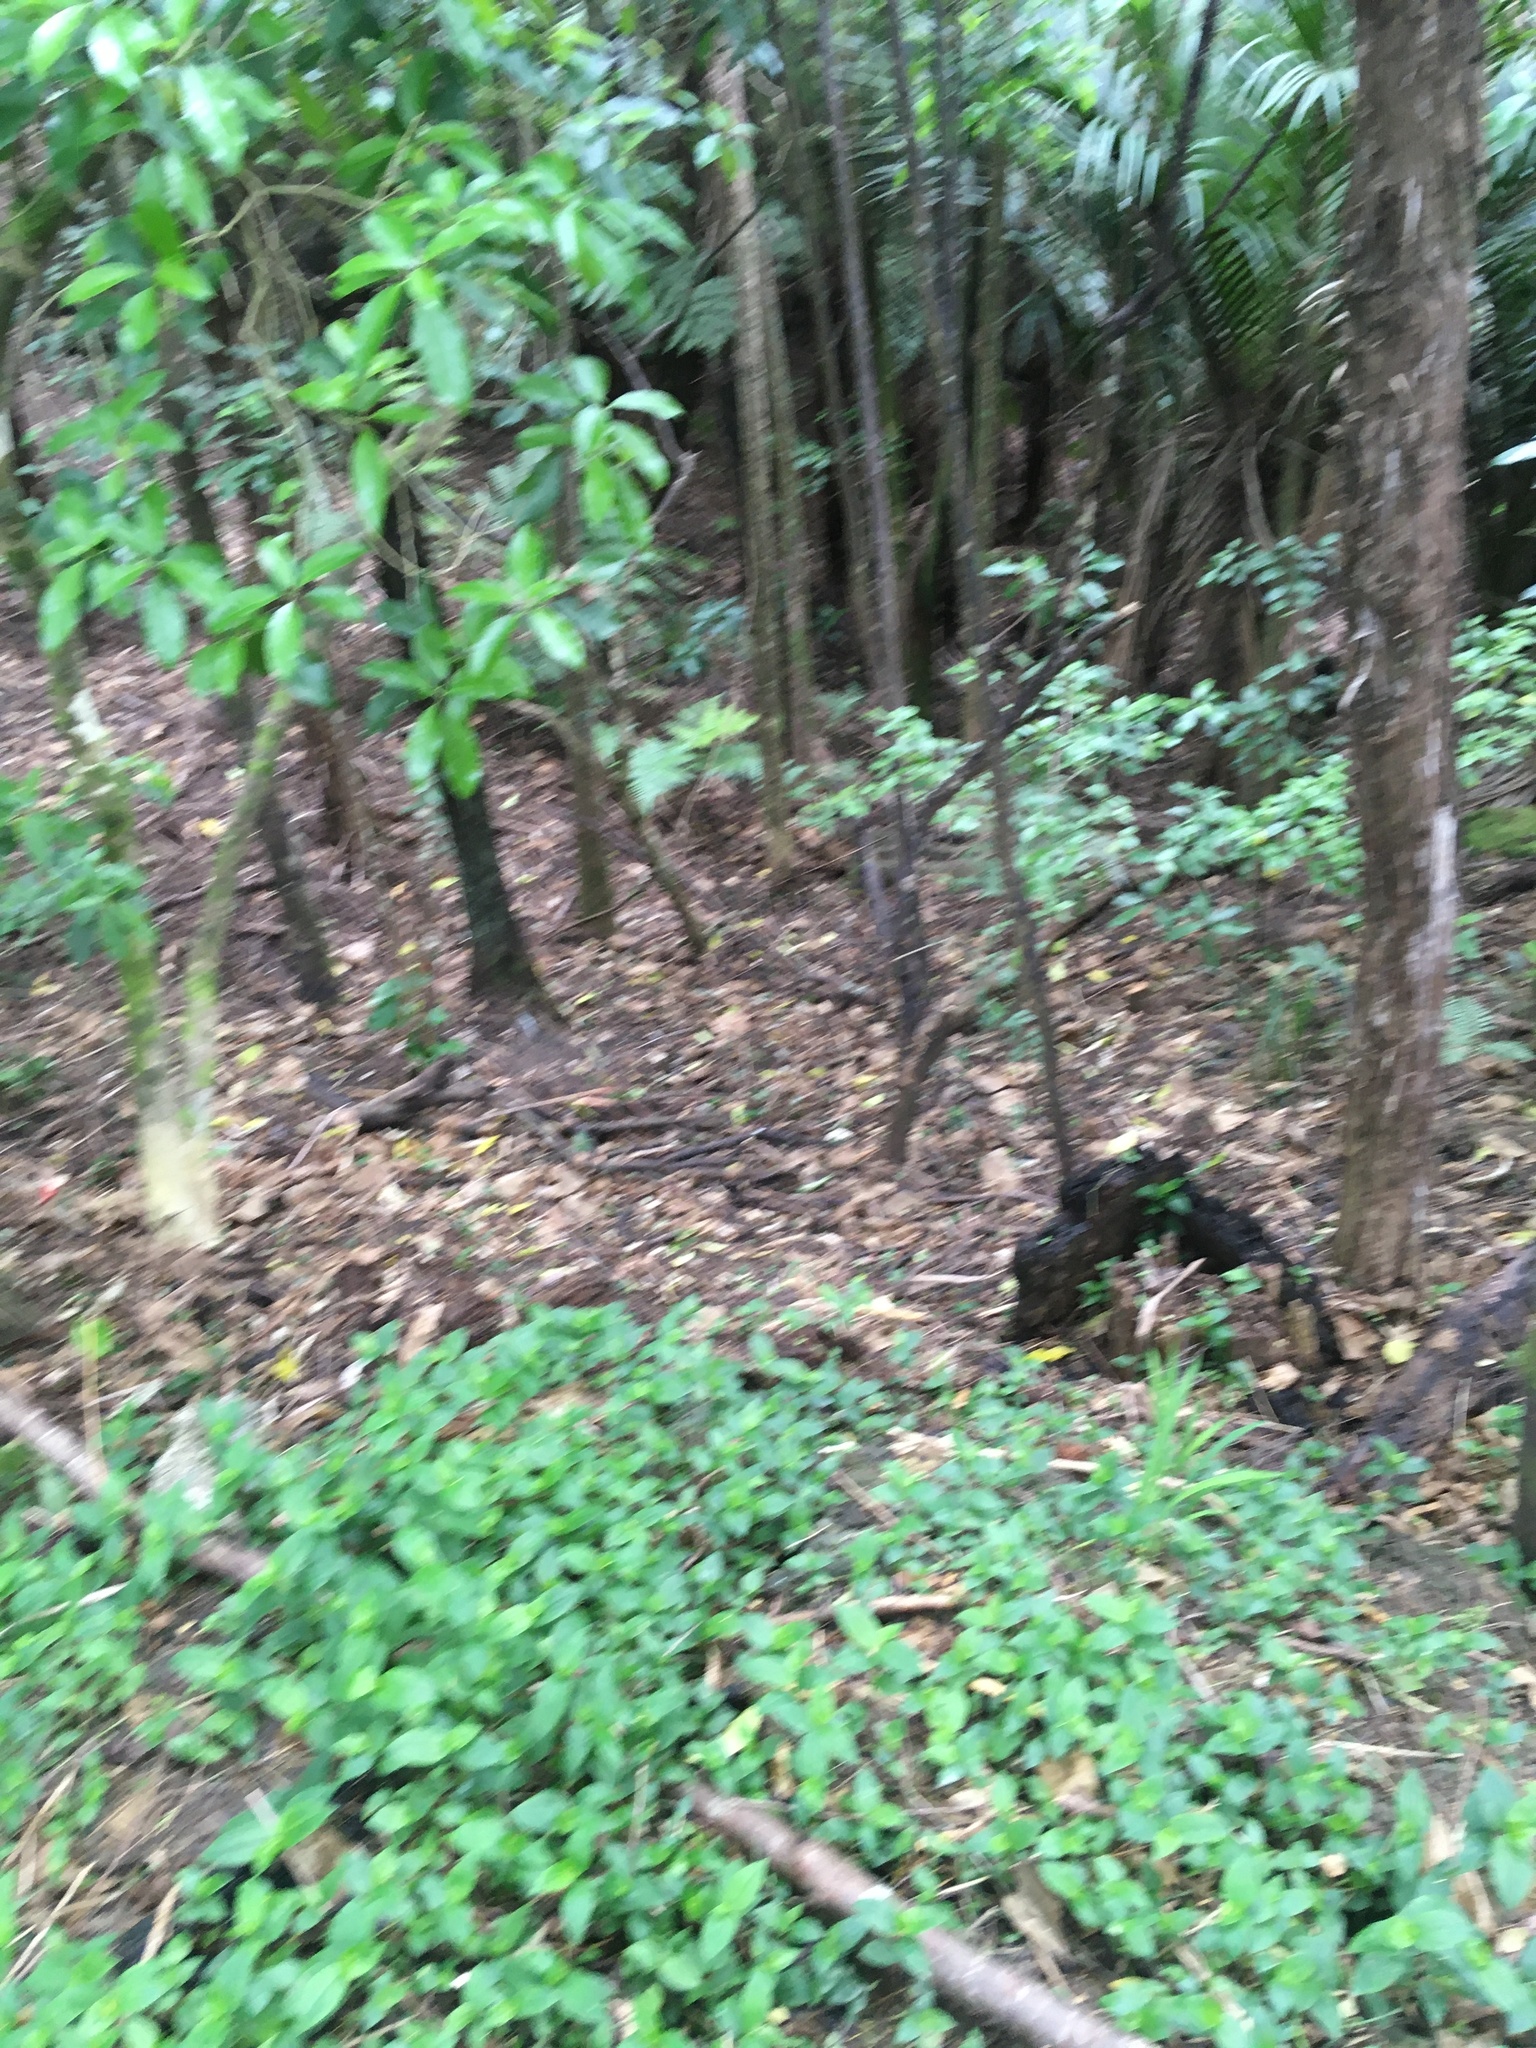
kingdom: Plantae
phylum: Tracheophyta
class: Liliopsida
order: Commelinales
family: Commelinaceae
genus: Tradescantia
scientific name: Tradescantia fluminensis
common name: Wandering-jew
